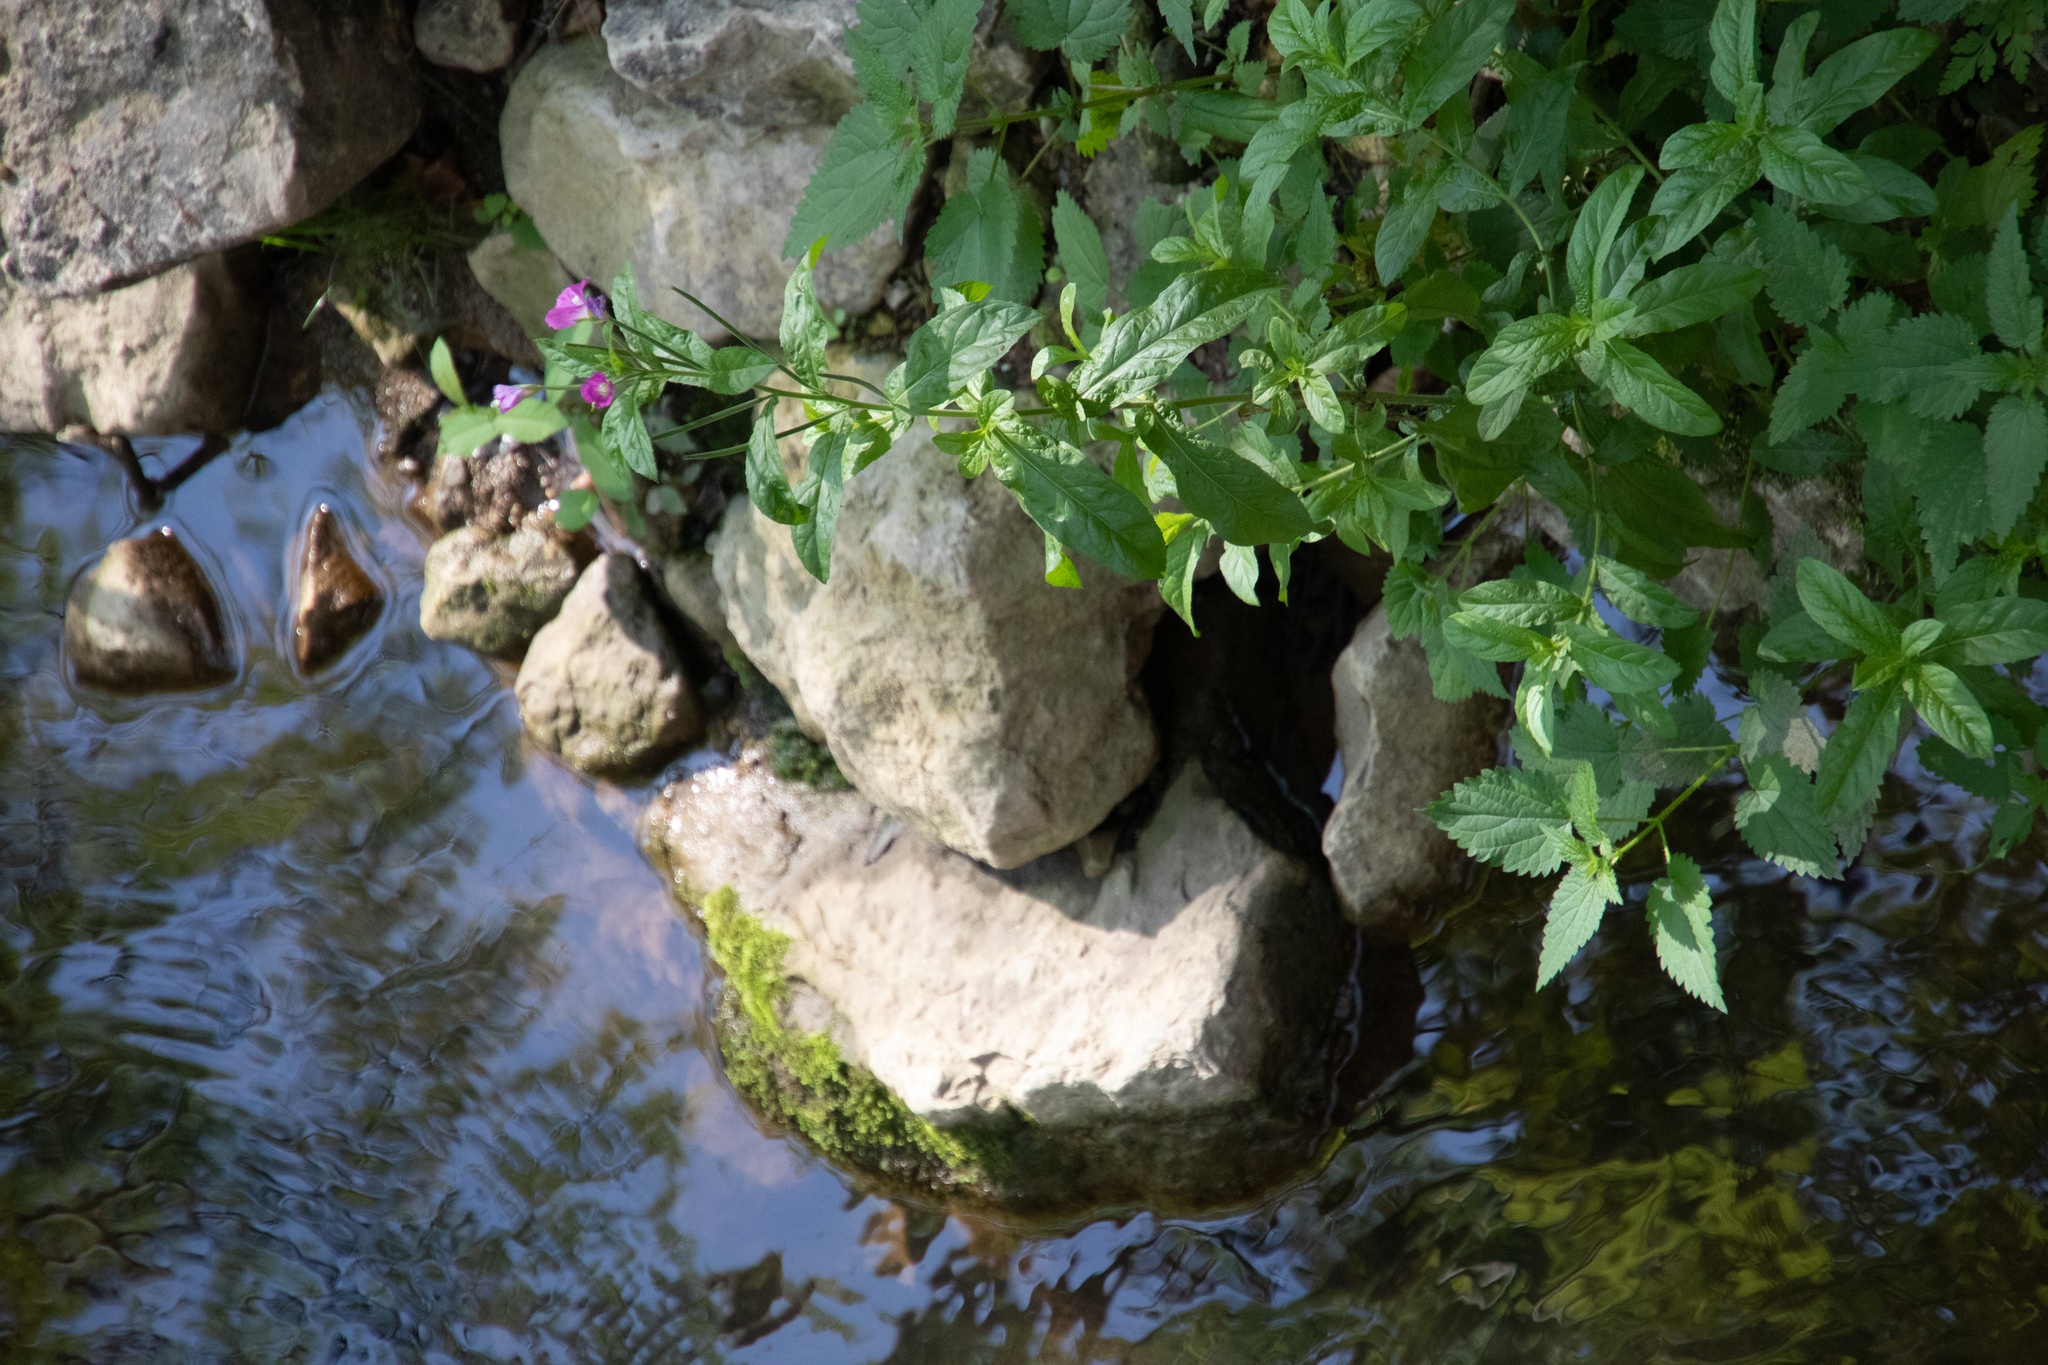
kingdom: Plantae
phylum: Tracheophyta
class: Magnoliopsida
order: Myrtales
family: Onagraceae
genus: Epilobium
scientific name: Epilobium hirsutum
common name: Great willowherb
